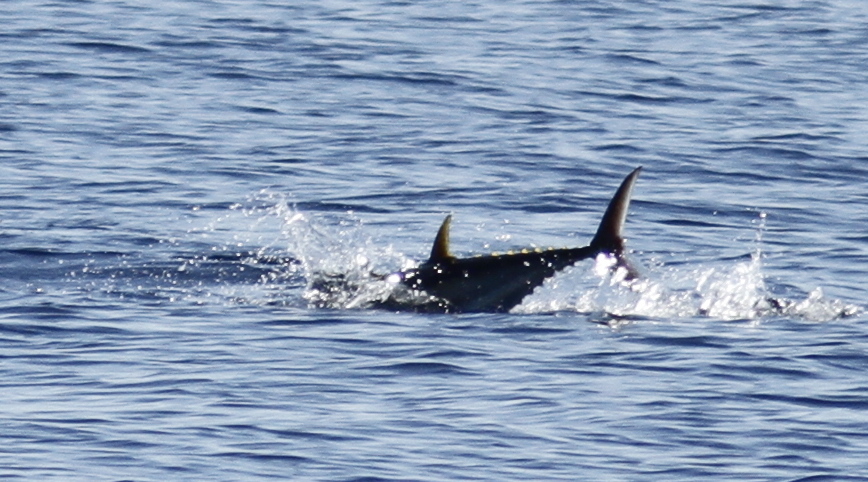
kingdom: Animalia
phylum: Chordata
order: Perciformes
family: Scombridae
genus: Thunnus
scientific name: Thunnus thynnus
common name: Bluefin tuna
